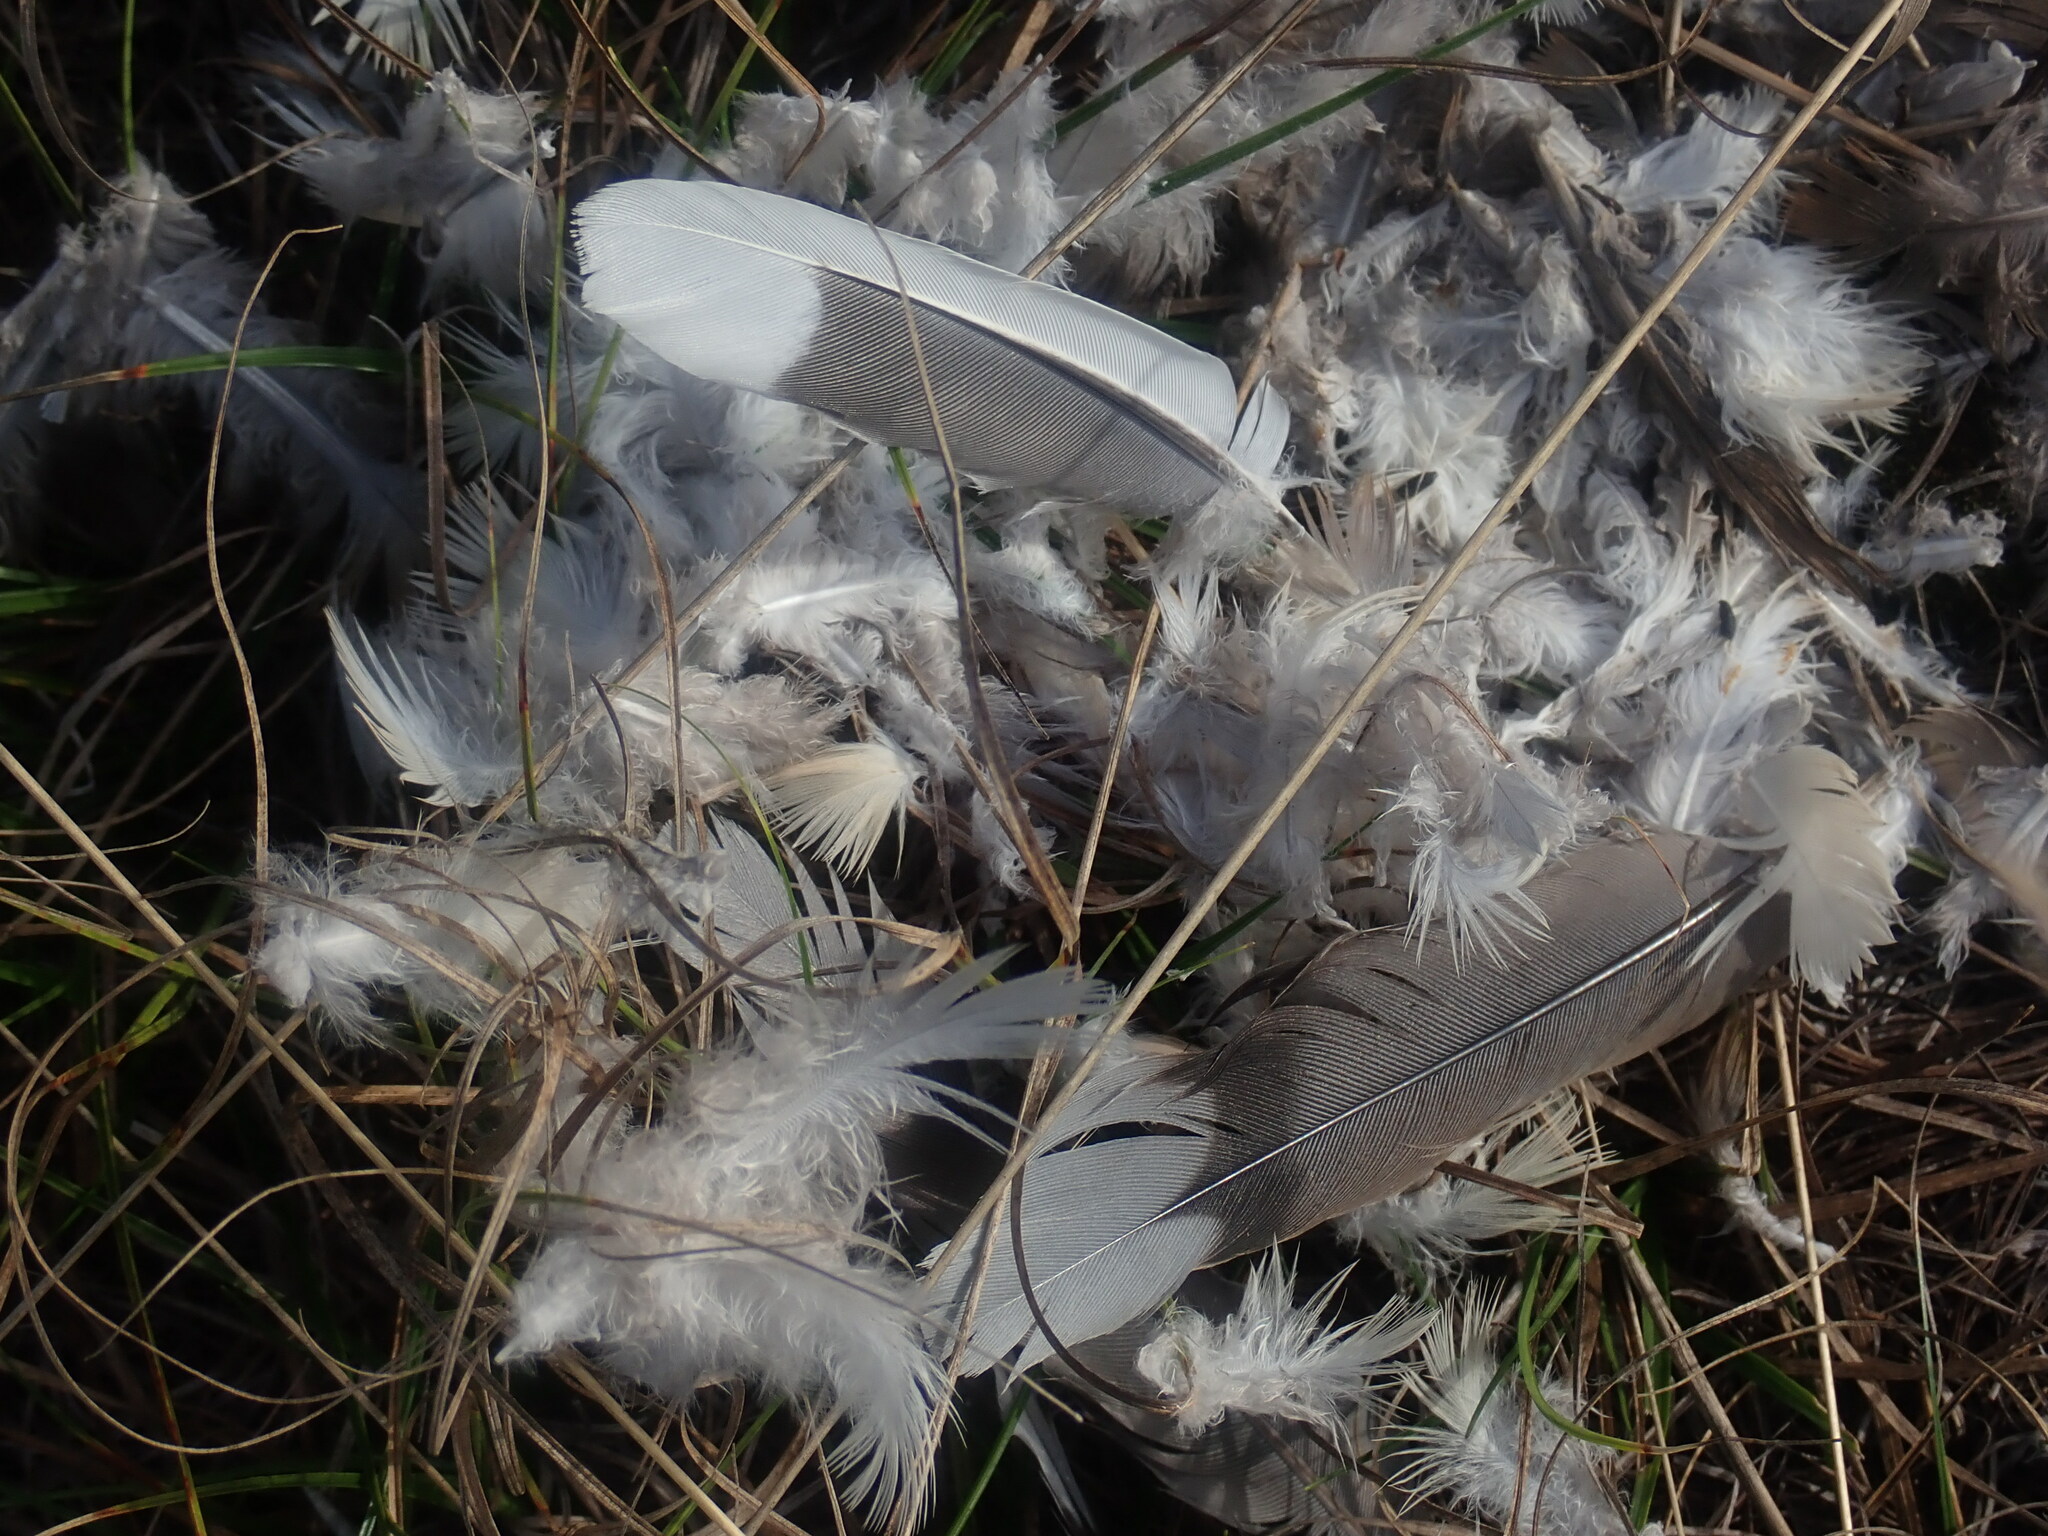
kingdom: Animalia
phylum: Chordata
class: Aves
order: Columbiformes
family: Columbidae
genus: Zenaida
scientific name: Zenaida macroura
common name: Mourning dove
